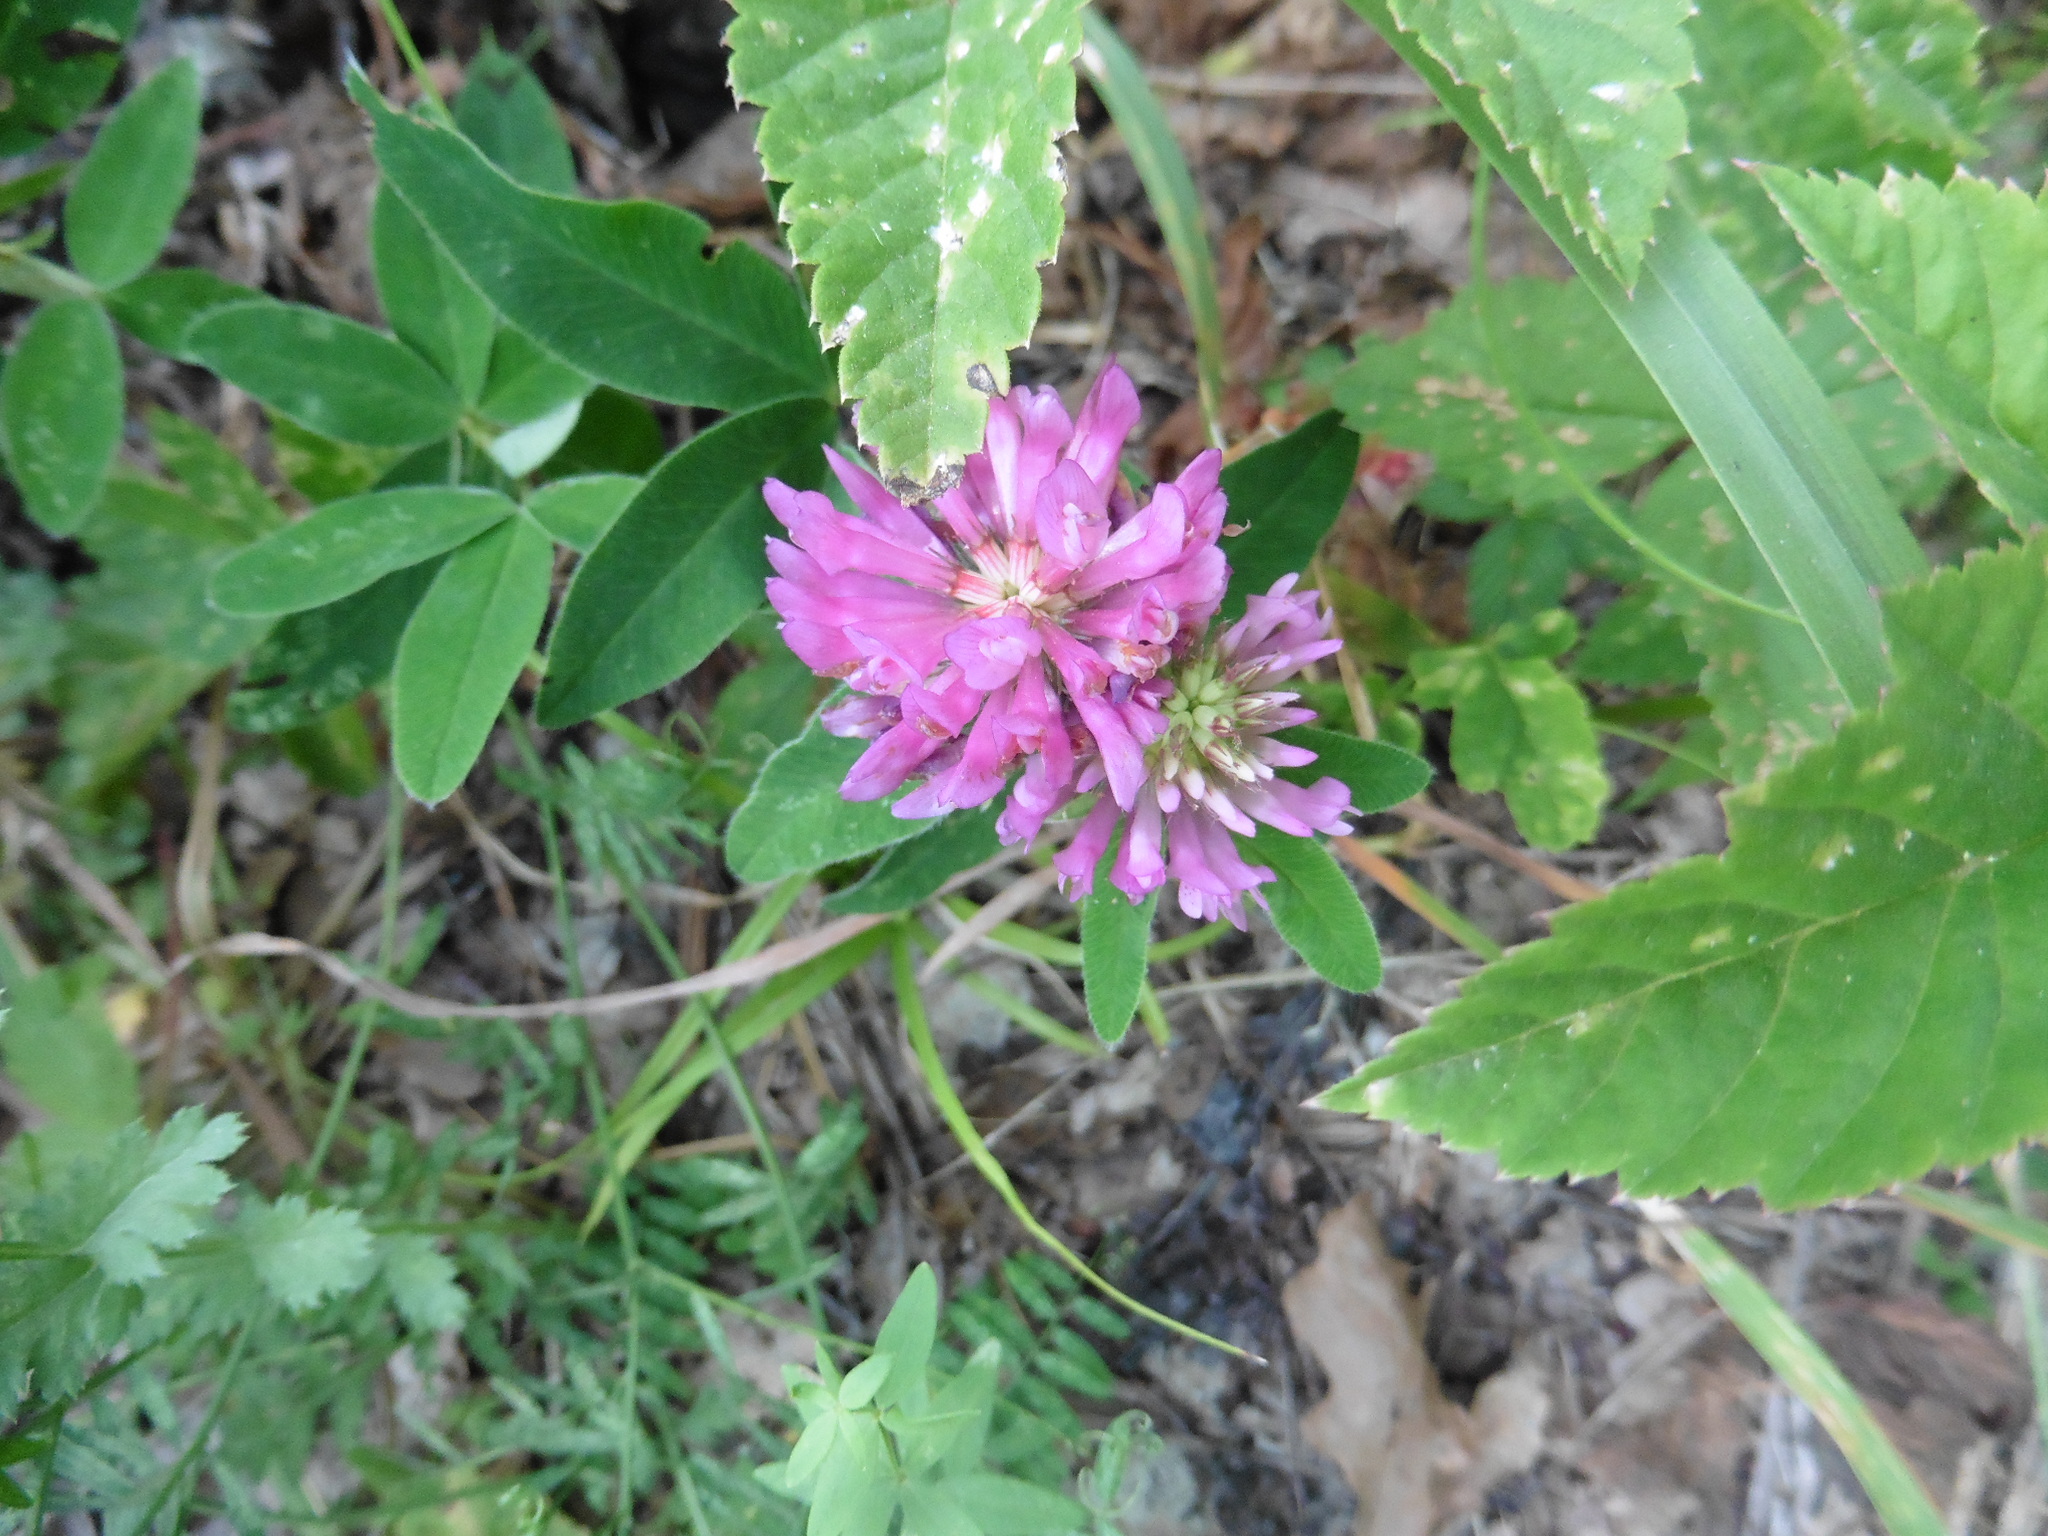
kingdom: Plantae
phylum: Tracheophyta
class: Magnoliopsida
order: Fabales
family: Fabaceae
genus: Trifolium
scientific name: Trifolium medium
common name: Zigzag clover
